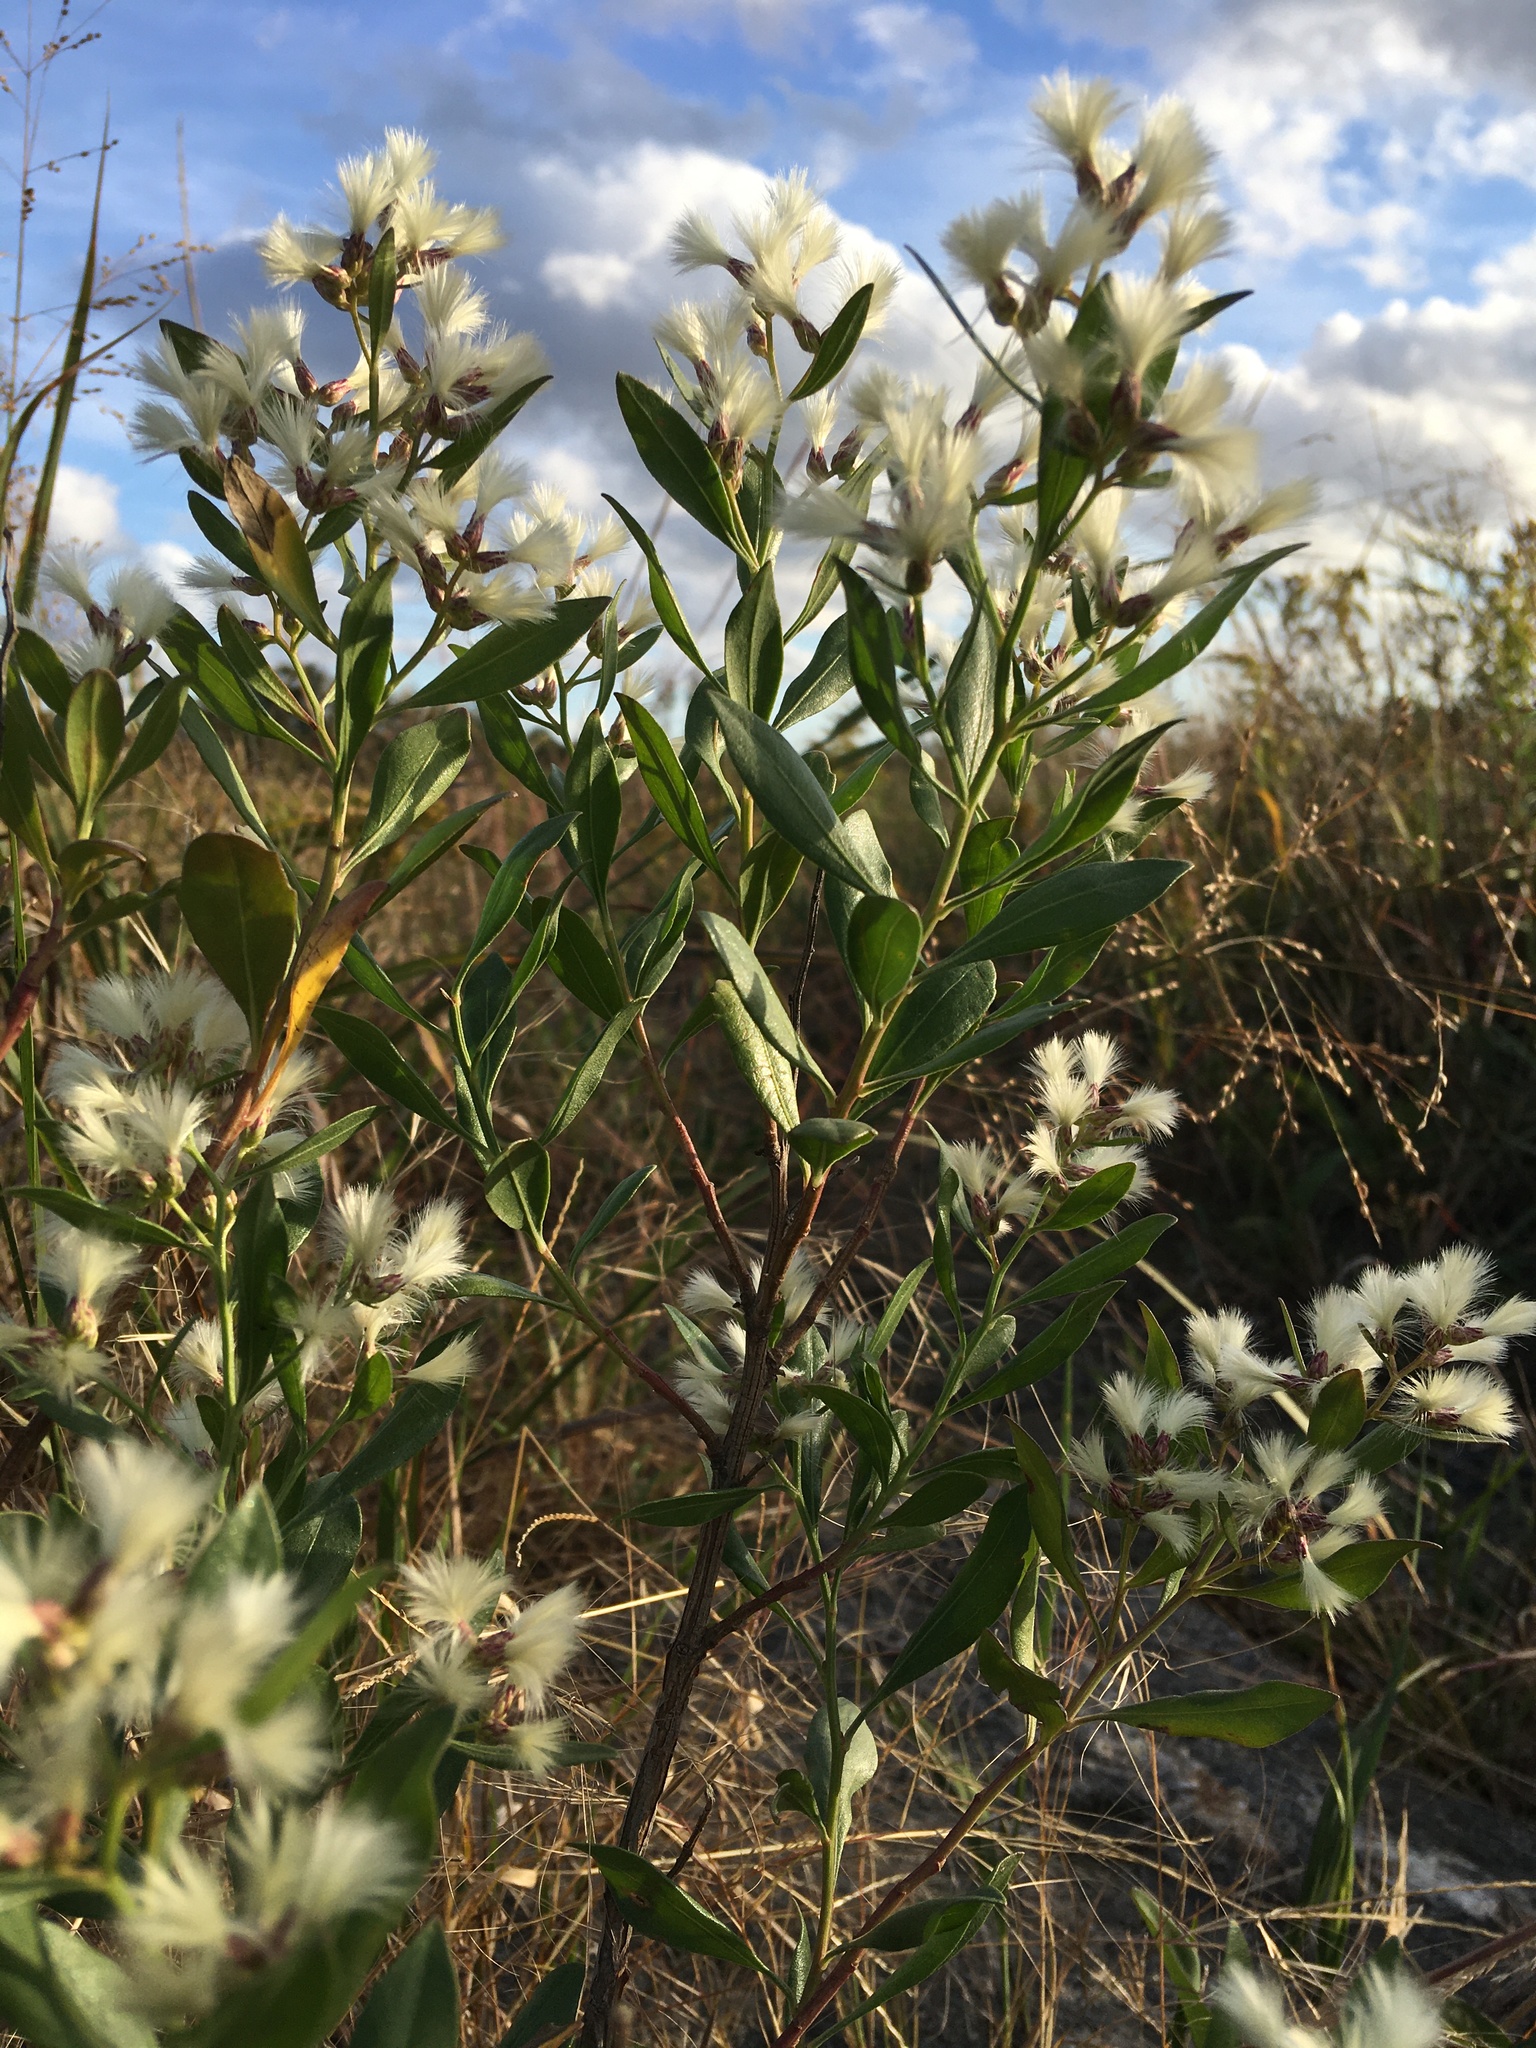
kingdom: Plantae
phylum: Tracheophyta
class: Magnoliopsida
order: Asterales
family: Asteraceae
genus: Baccharis
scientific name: Baccharis halimifolia
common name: Eastern baccharis
